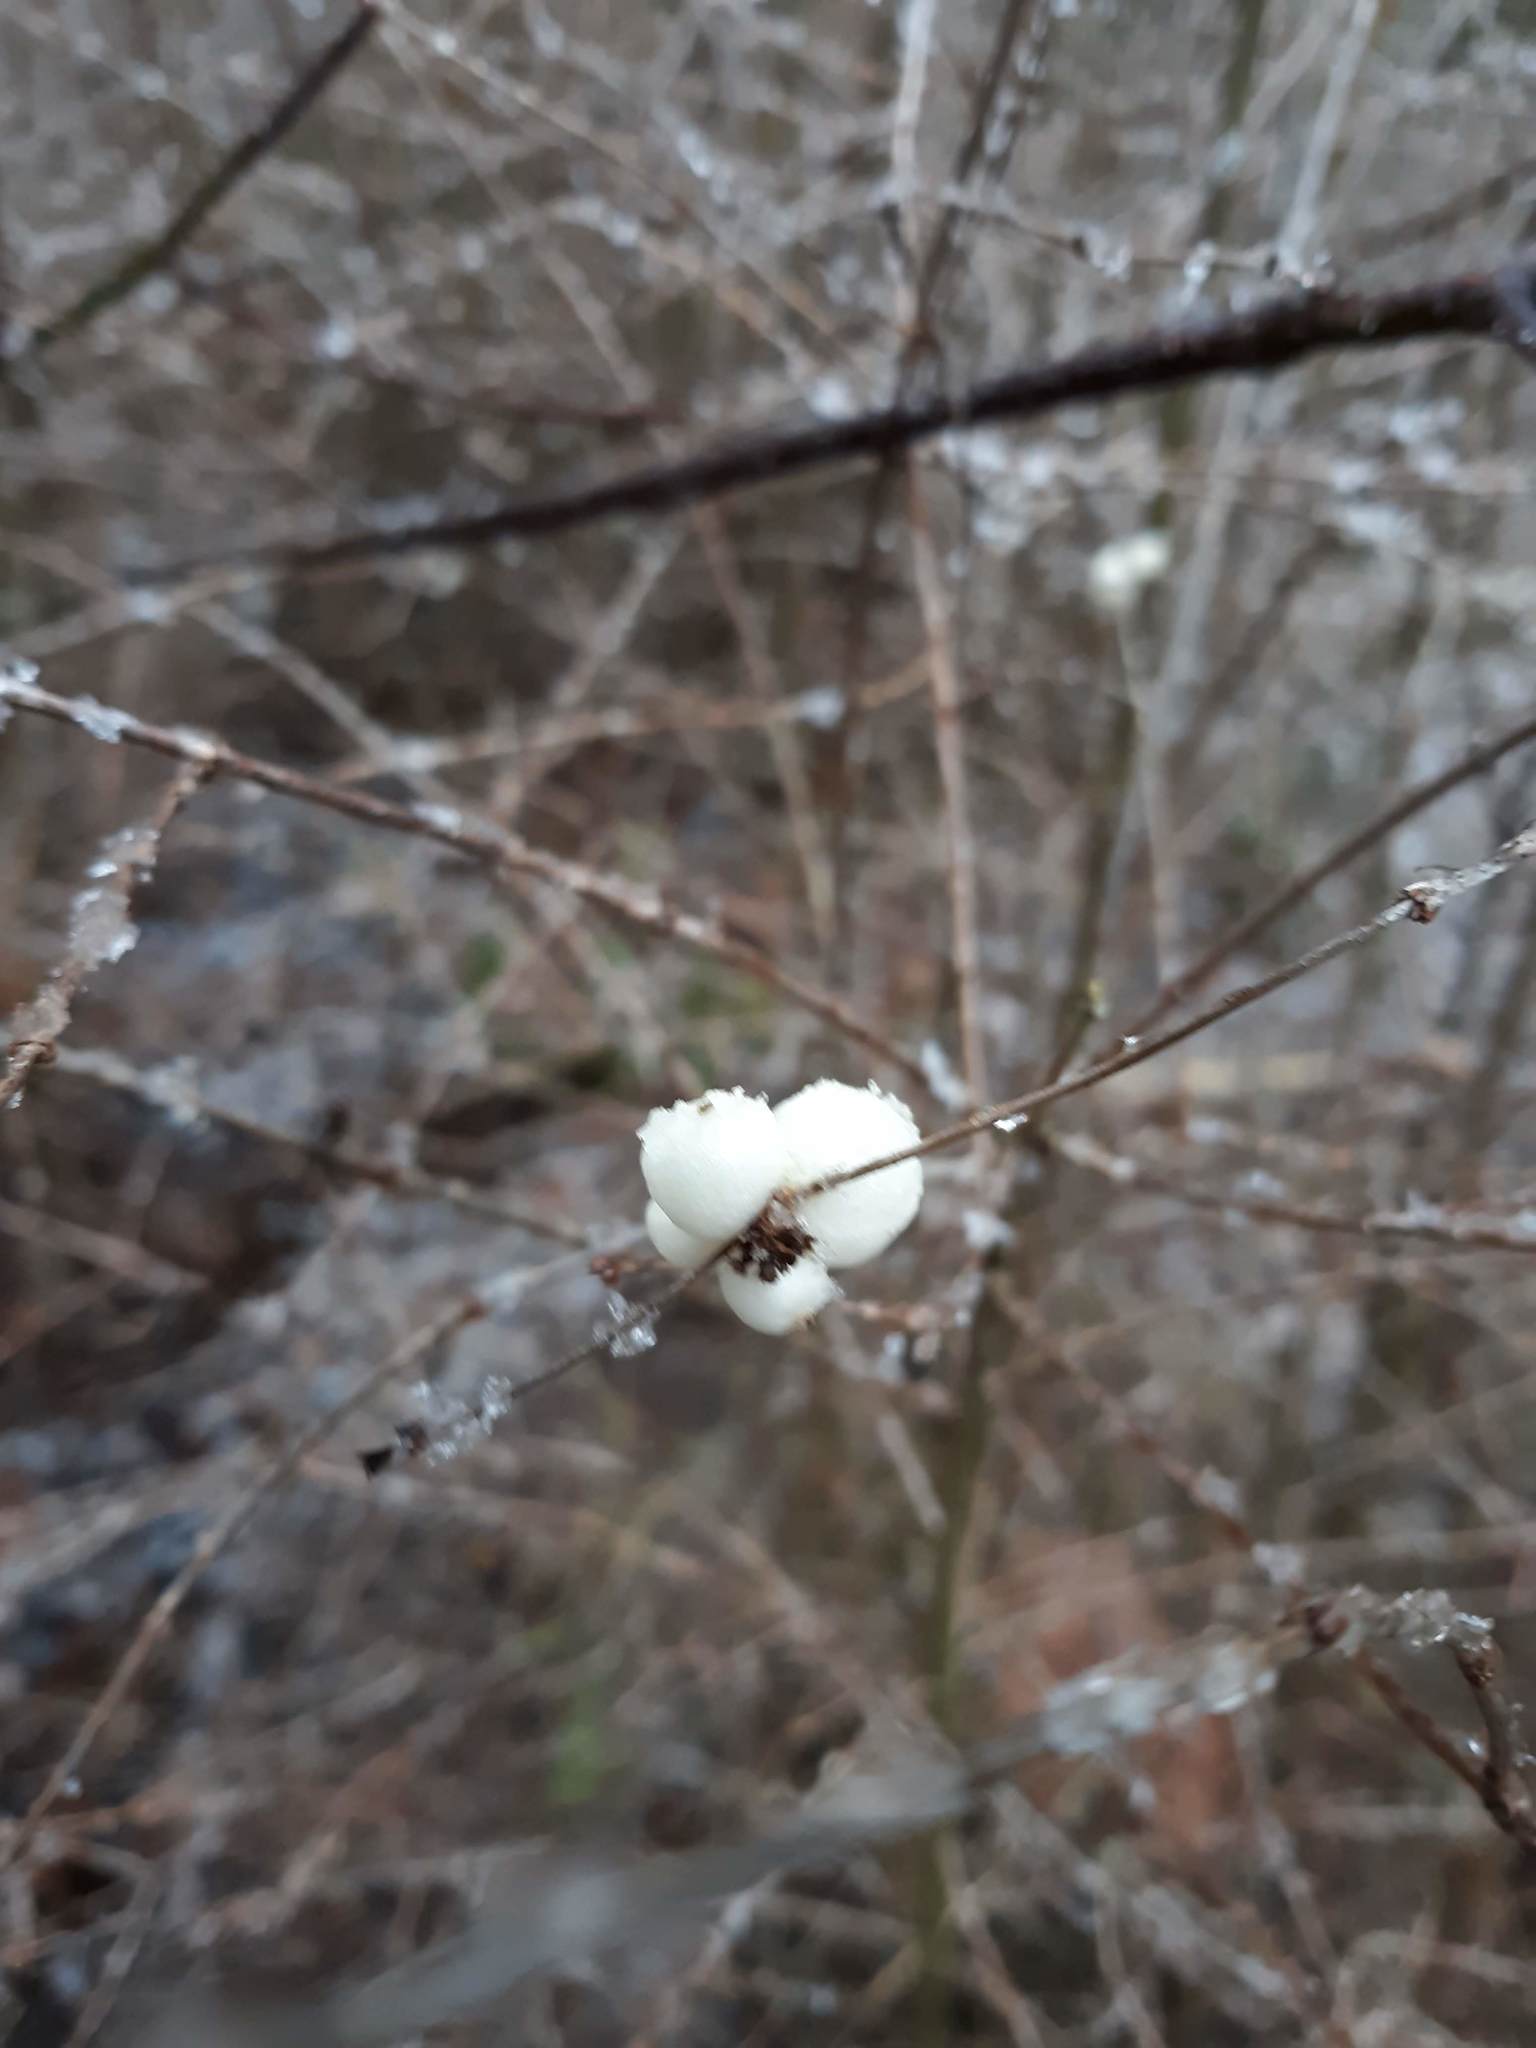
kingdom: Plantae
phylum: Tracheophyta
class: Magnoliopsida
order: Dipsacales
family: Caprifoliaceae
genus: Symphoricarpos
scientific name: Symphoricarpos albus
